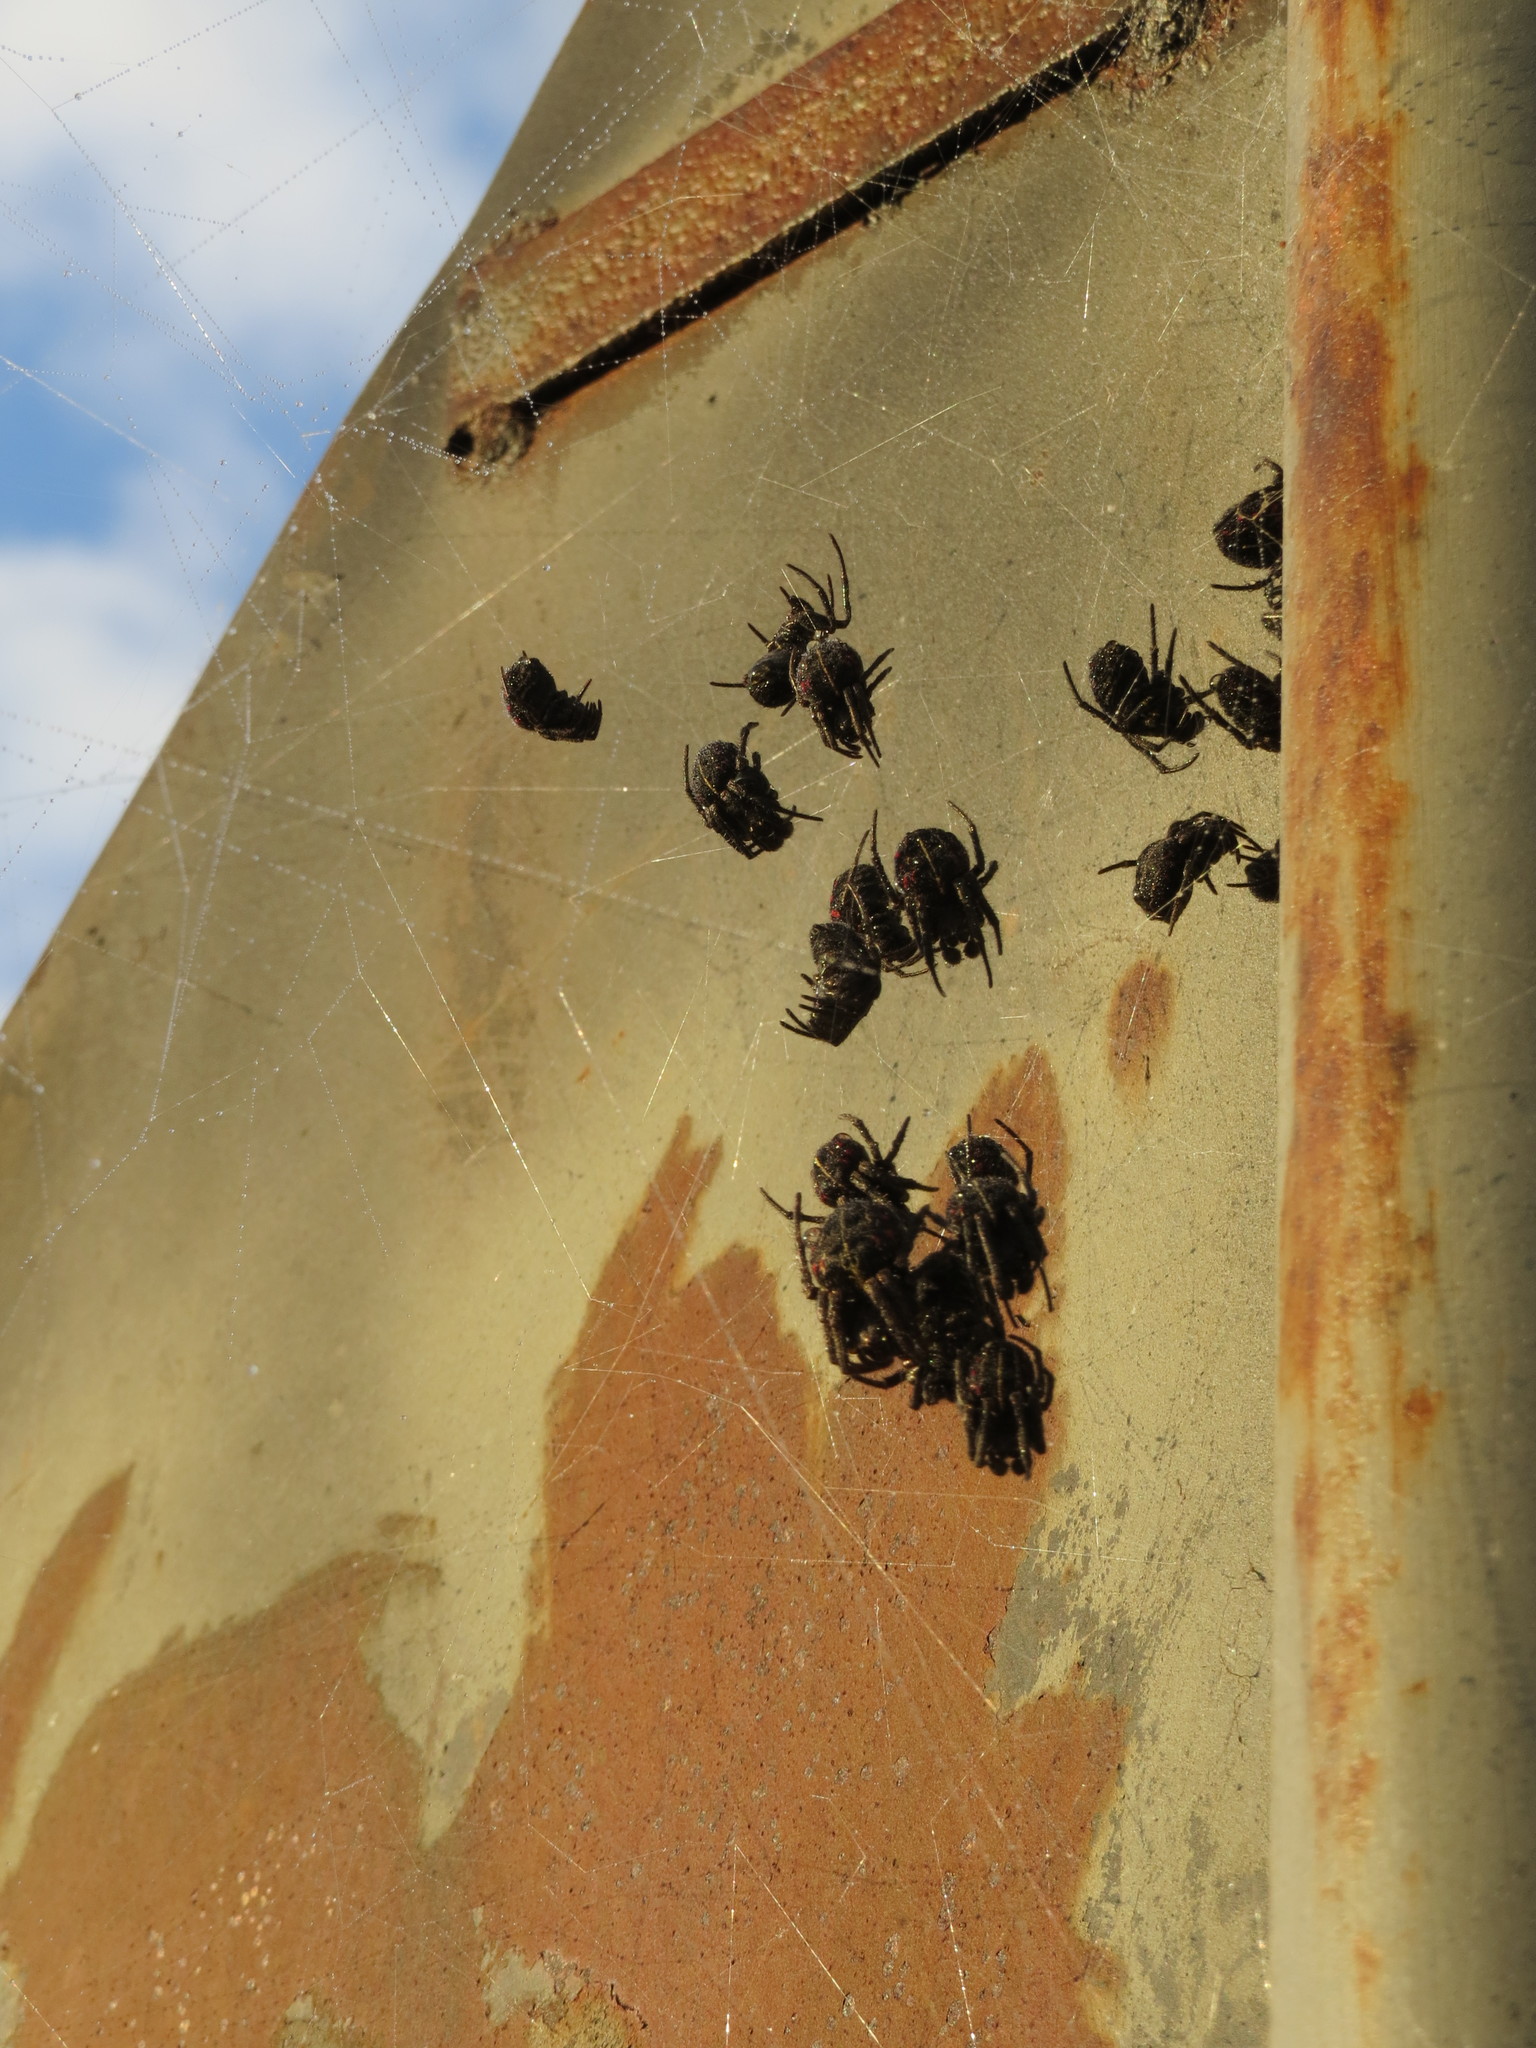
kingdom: Animalia
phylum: Arthropoda
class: Arachnida
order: Araneae
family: Araneidae
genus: Parawixia
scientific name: Parawixia bistriata
